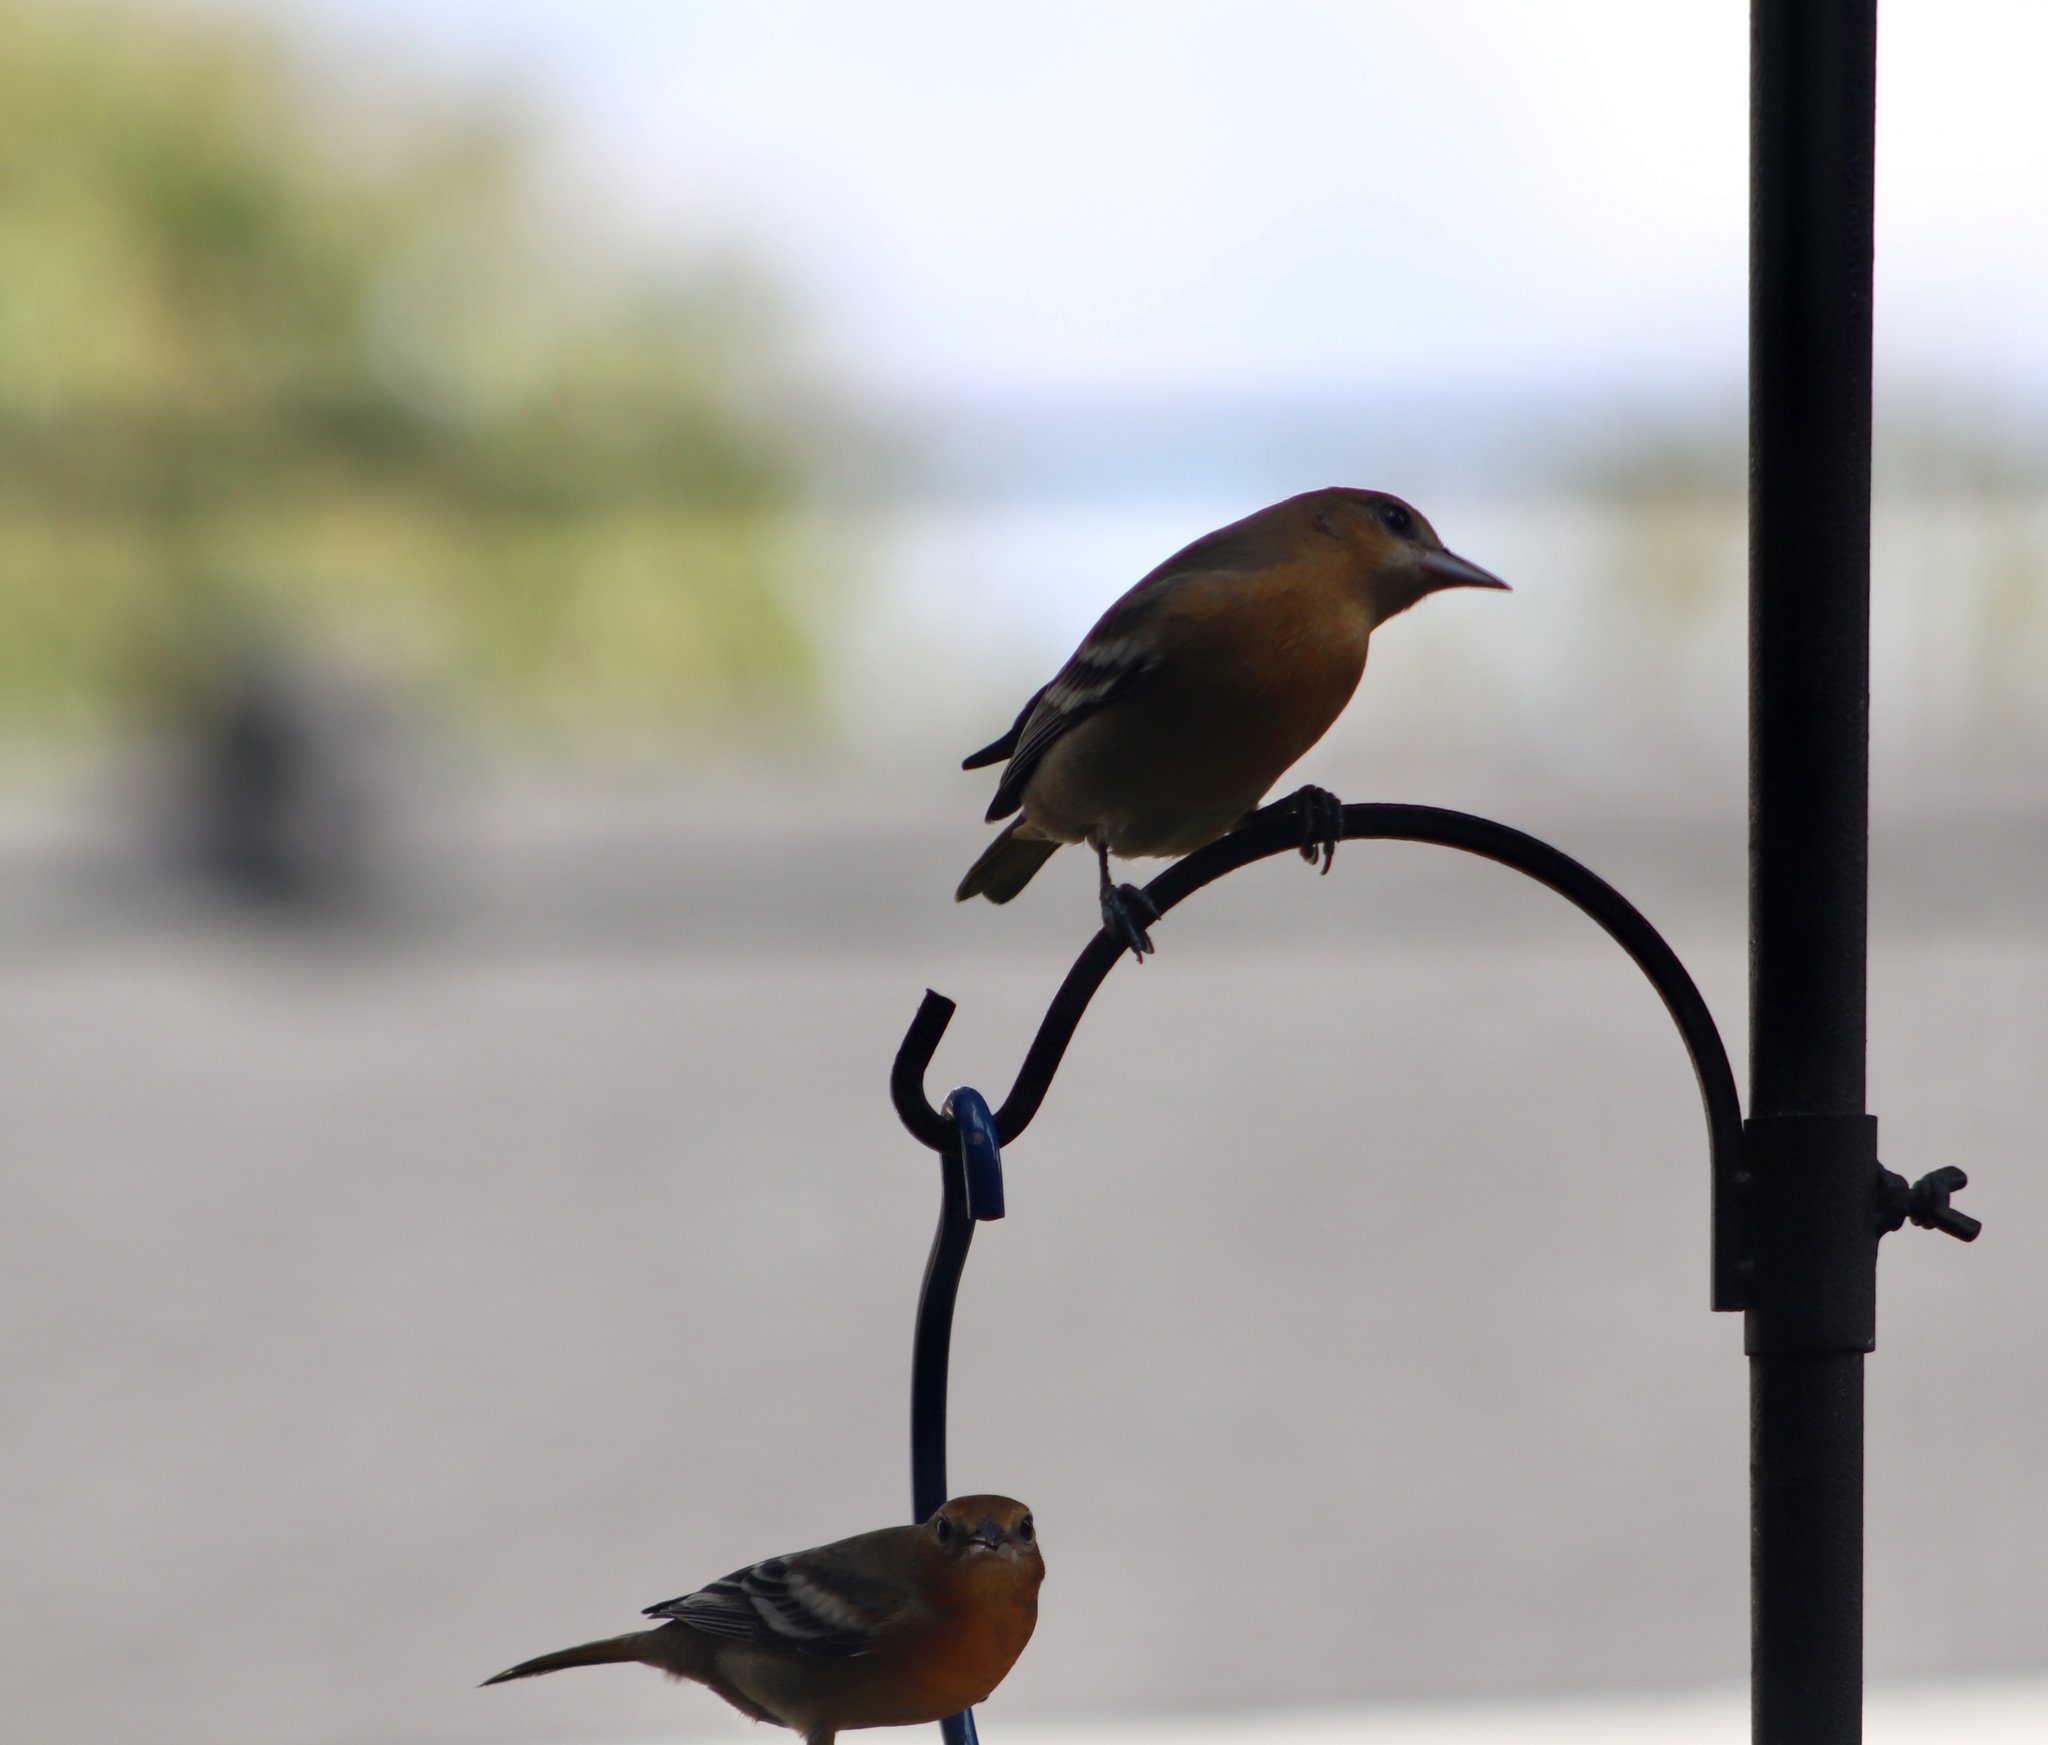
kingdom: Animalia
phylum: Chordata
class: Aves
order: Passeriformes
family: Icteridae
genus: Icterus
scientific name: Icterus galbula
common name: Baltimore oriole
